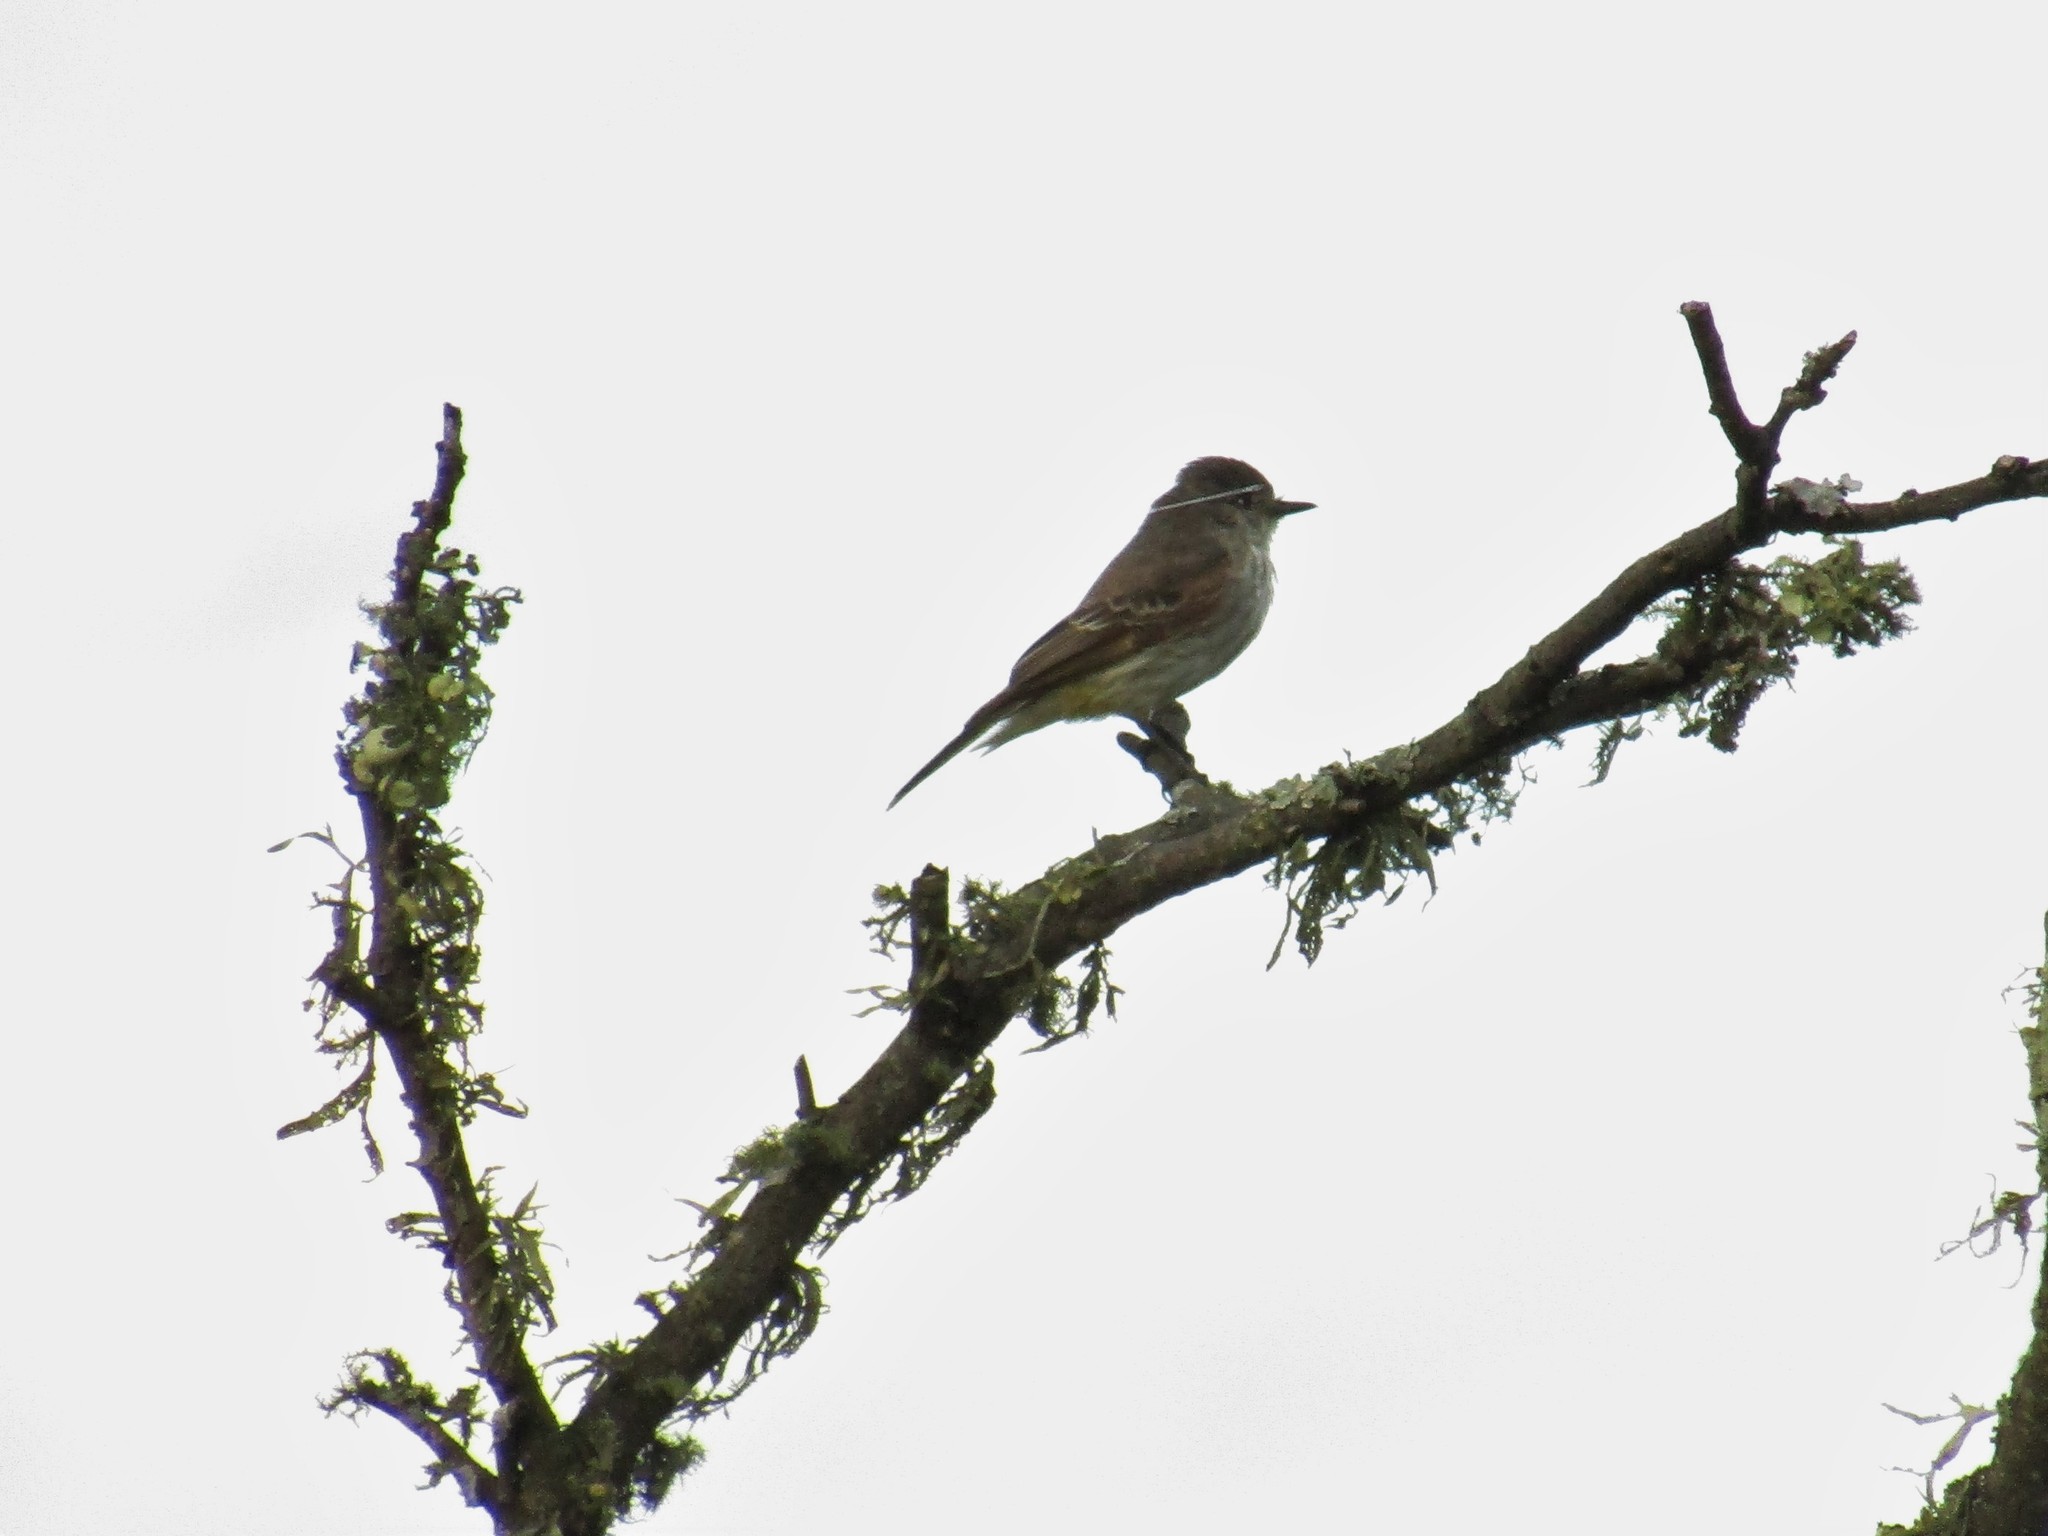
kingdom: Animalia
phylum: Chordata
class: Aves
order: Passeriformes
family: Tyrannidae
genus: Pyrocephalus
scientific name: Pyrocephalus rubinus
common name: Vermilion flycatcher
